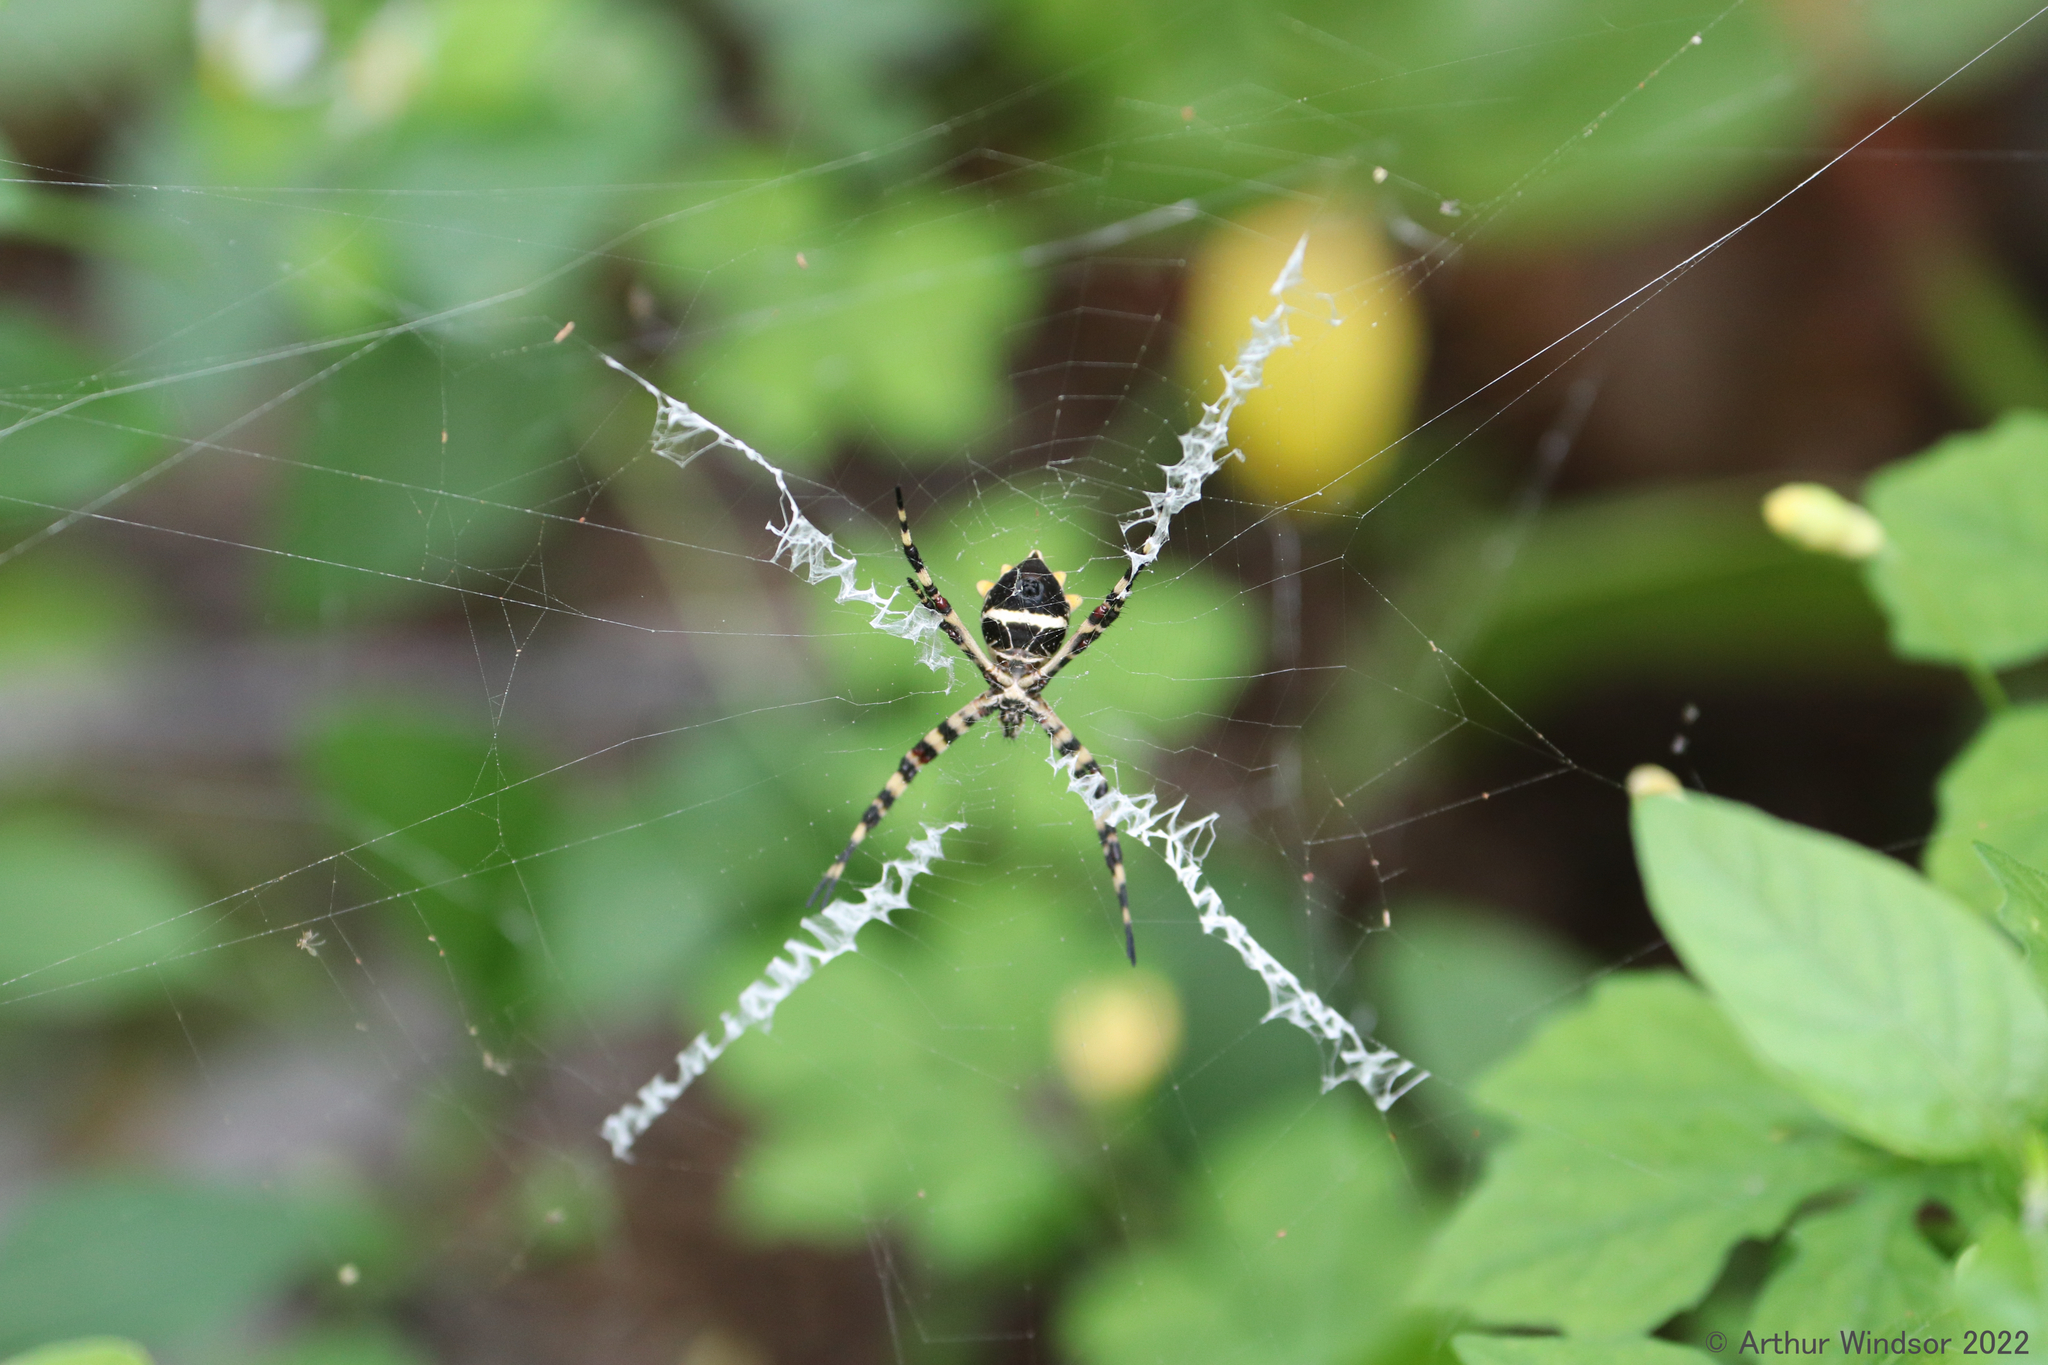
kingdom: Animalia
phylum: Arthropoda
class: Arachnida
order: Araneae
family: Araneidae
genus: Argiope
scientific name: Argiope argentata
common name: Orb weavers
